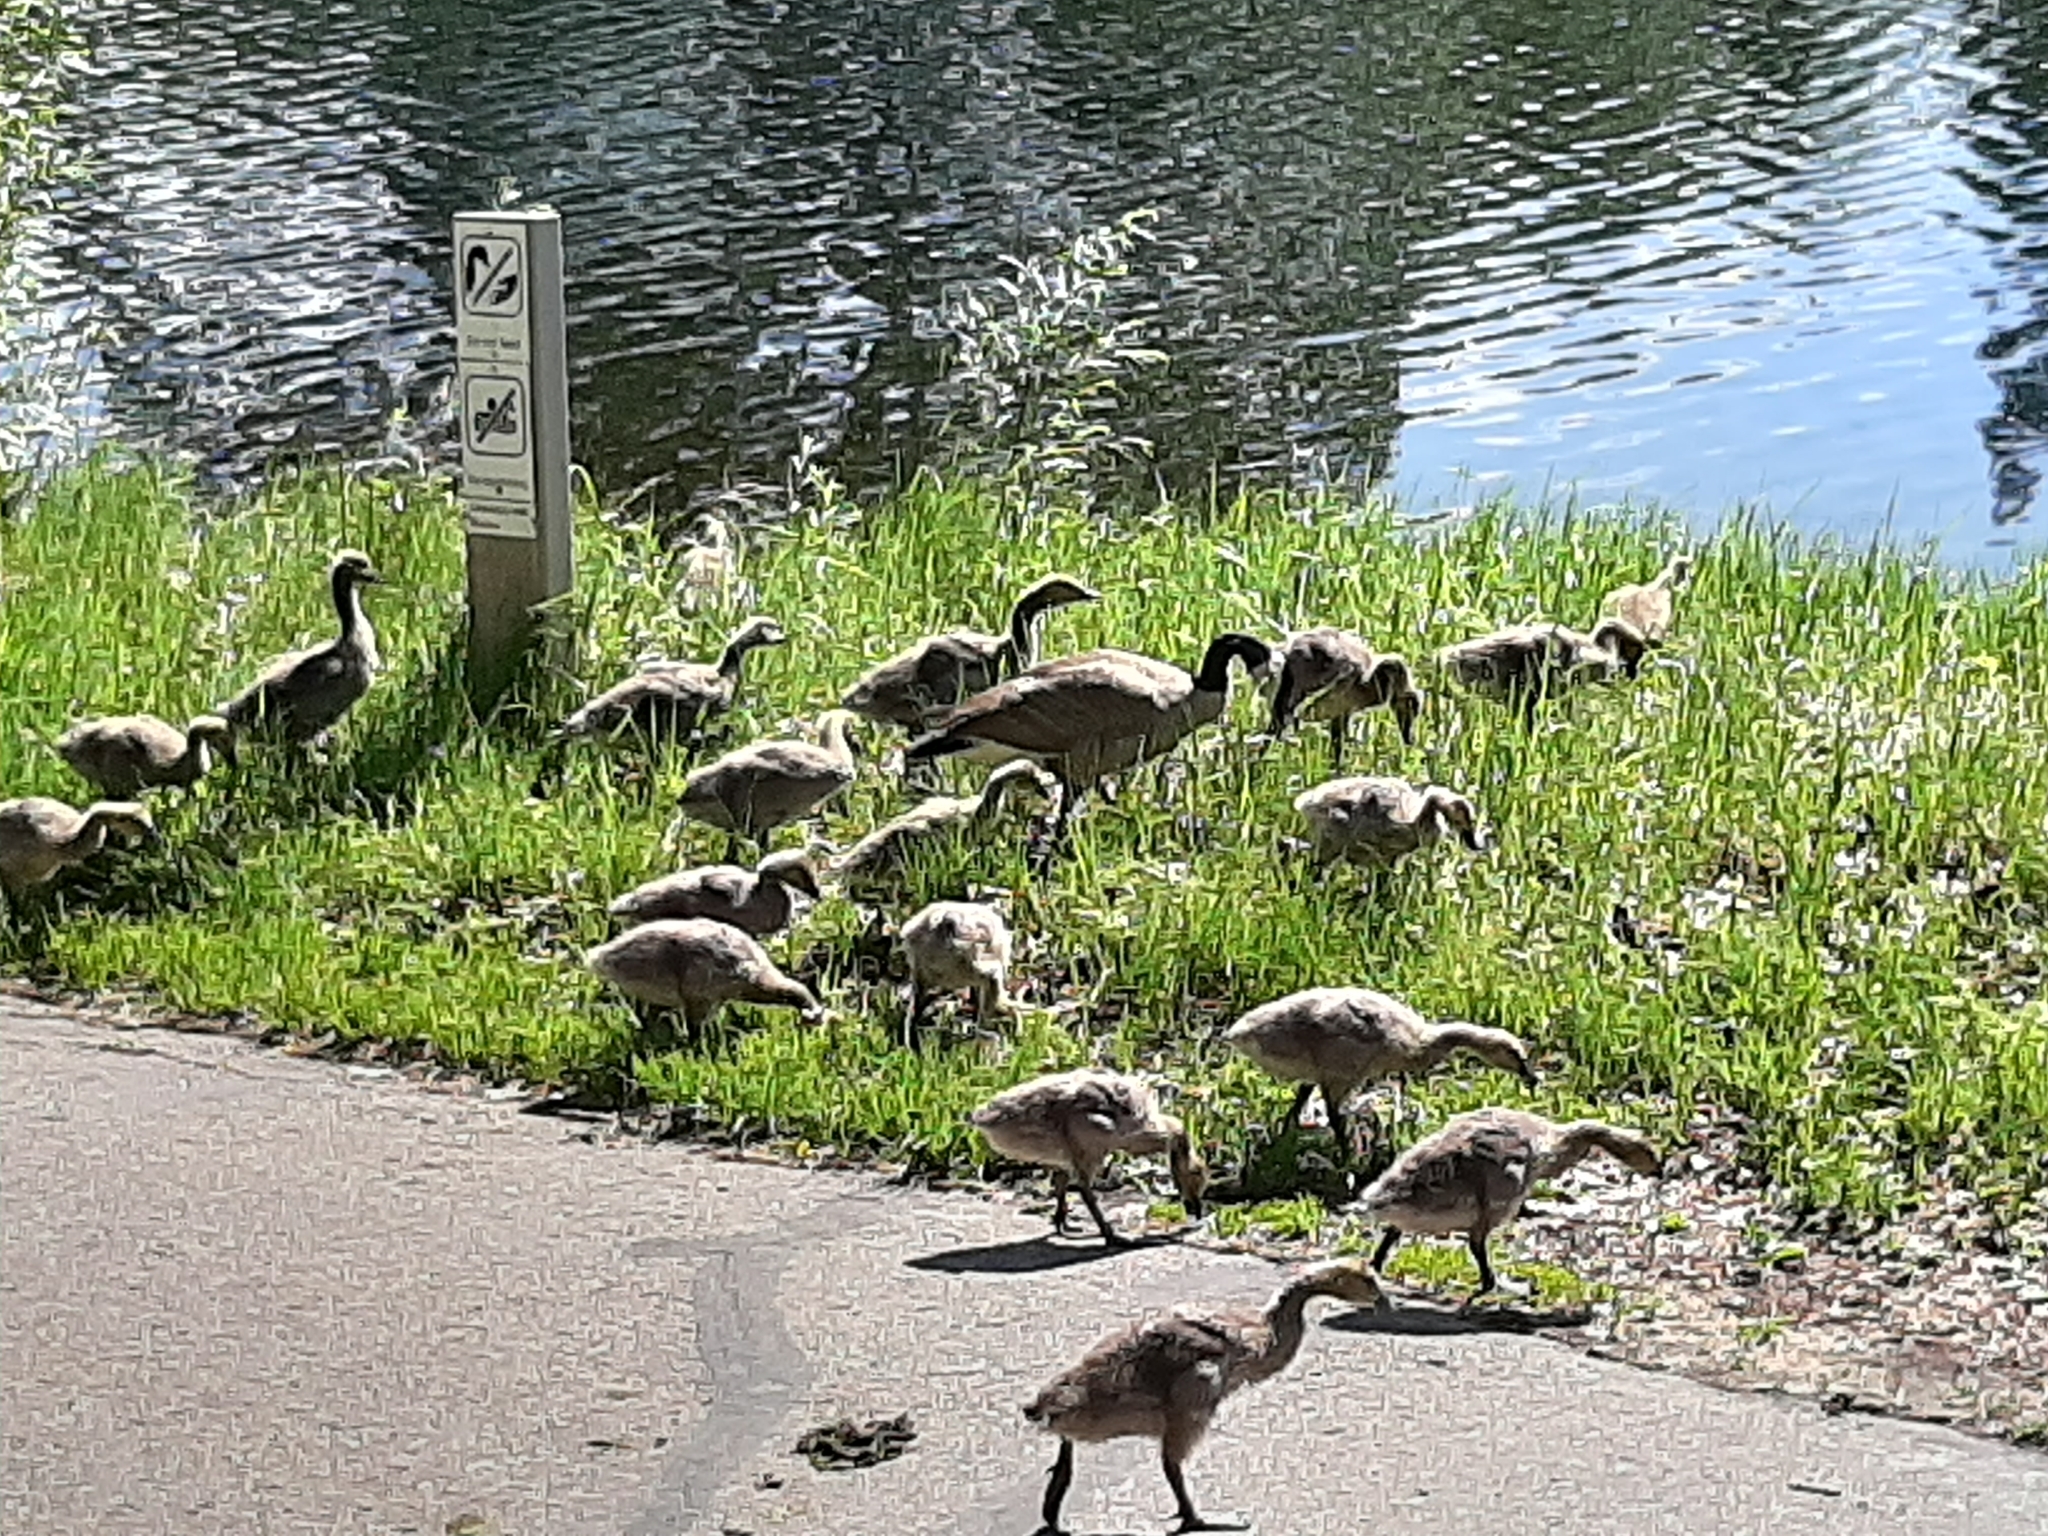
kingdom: Animalia
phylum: Chordata
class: Aves
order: Anseriformes
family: Anatidae
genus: Branta
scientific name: Branta canadensis
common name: Canada goose
